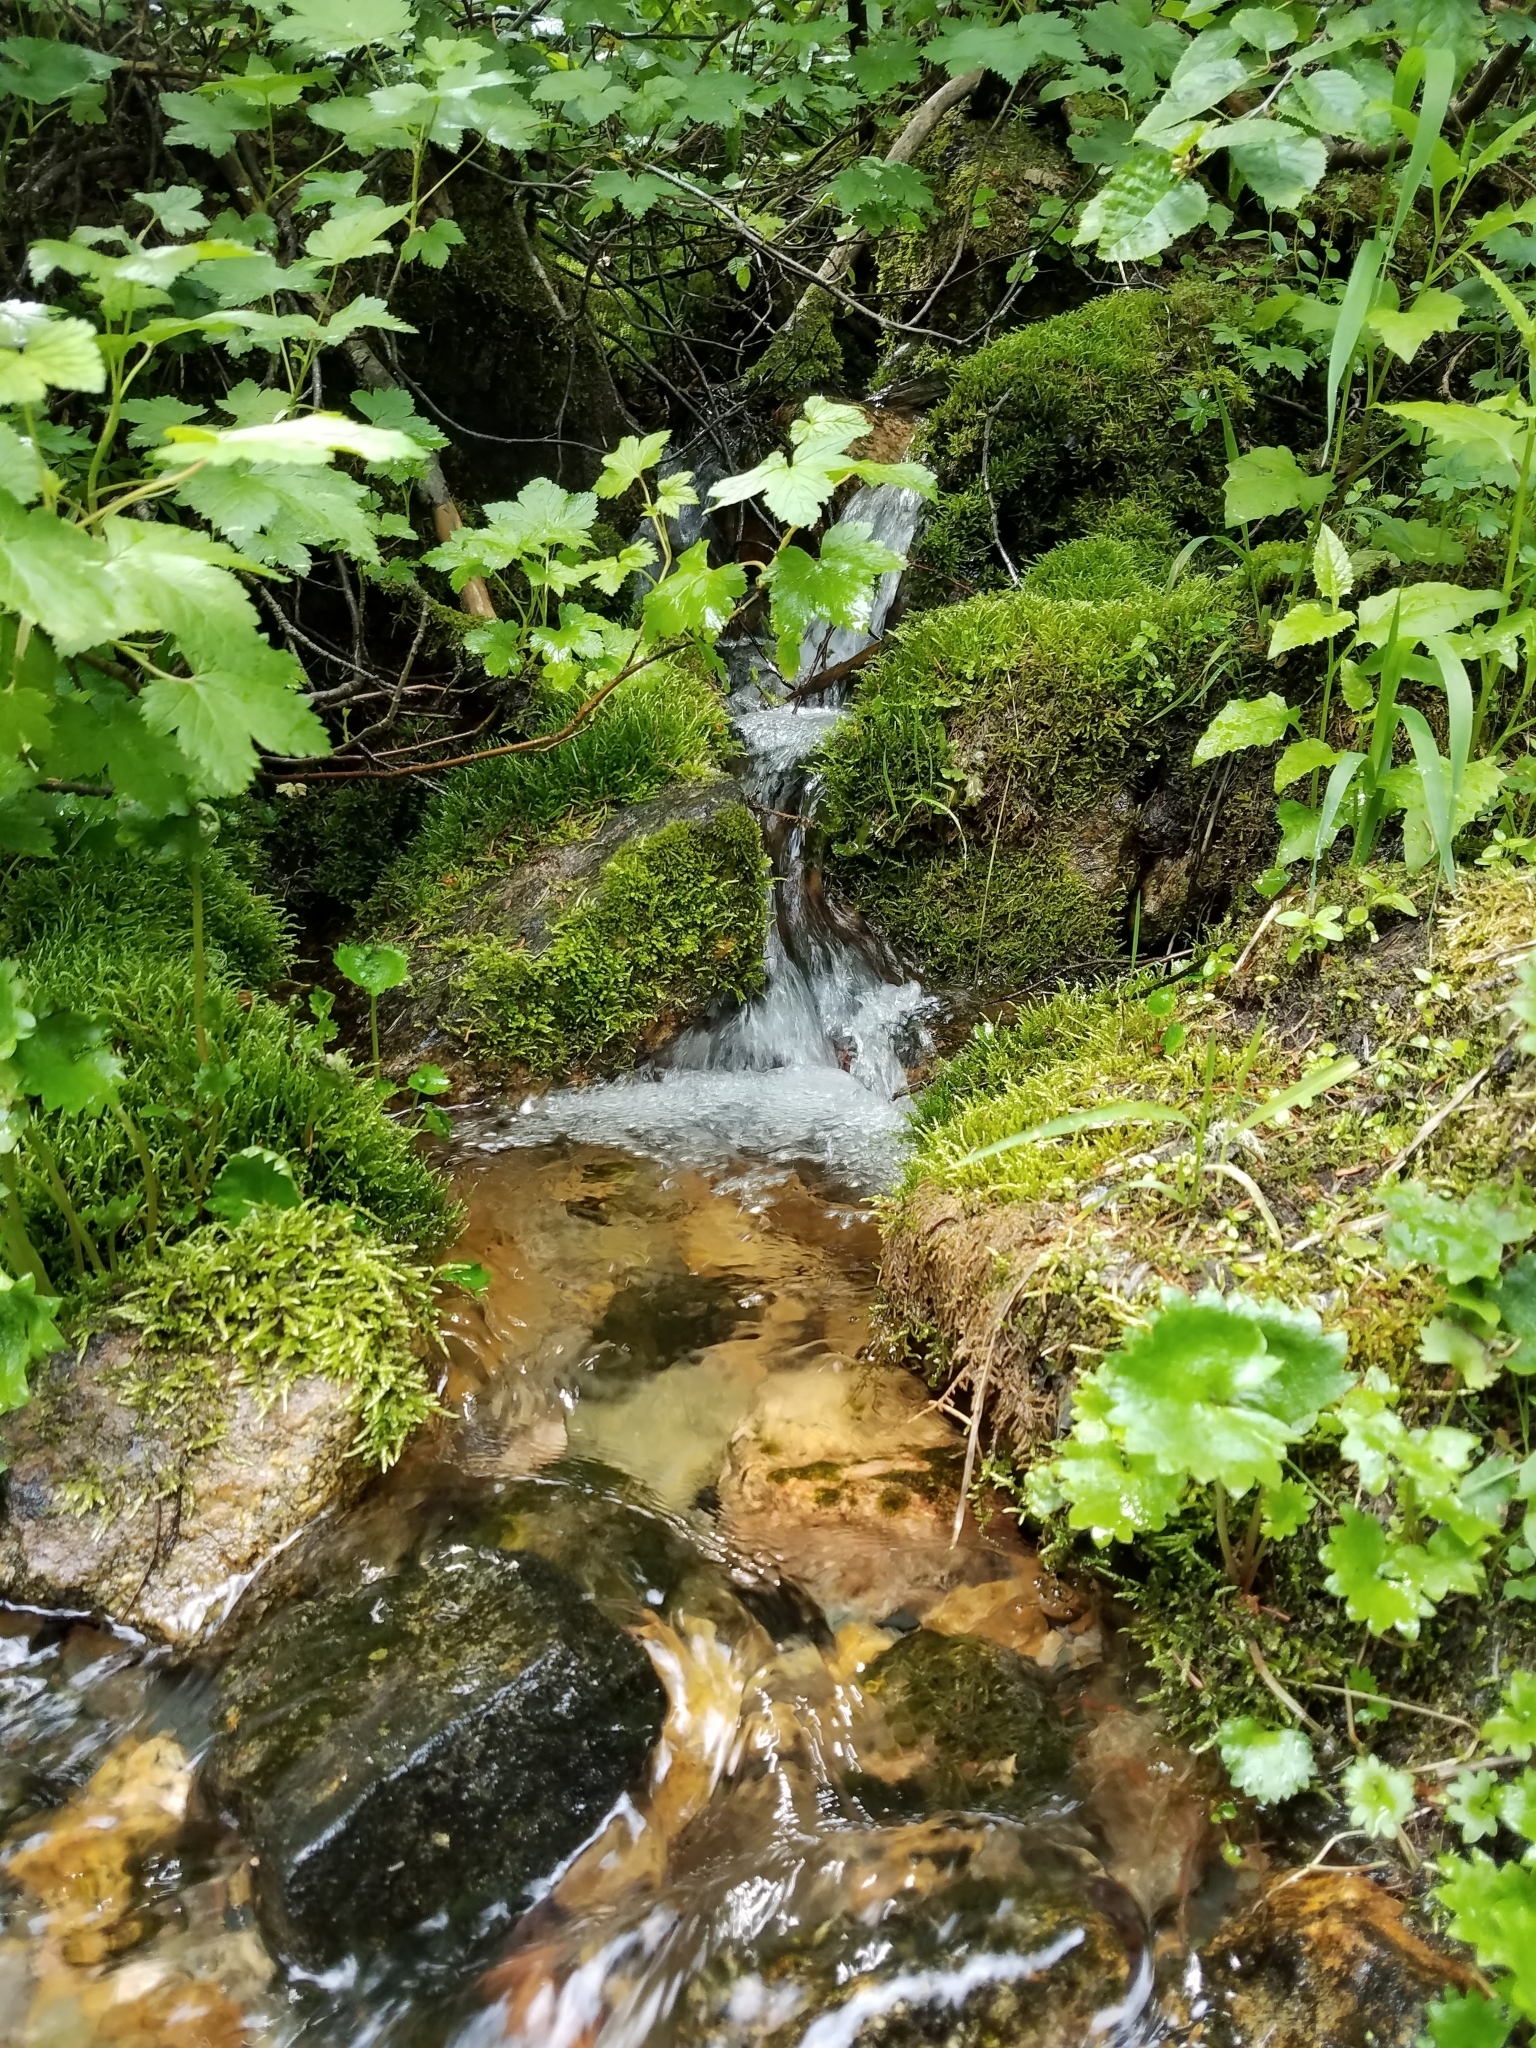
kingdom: Plantae
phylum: Tracheophyta
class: Magnoliopsida
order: Saxifragales
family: Saxifragaceae
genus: Micranthes
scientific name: Micranthes odontoloma
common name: Brook saxifrage
